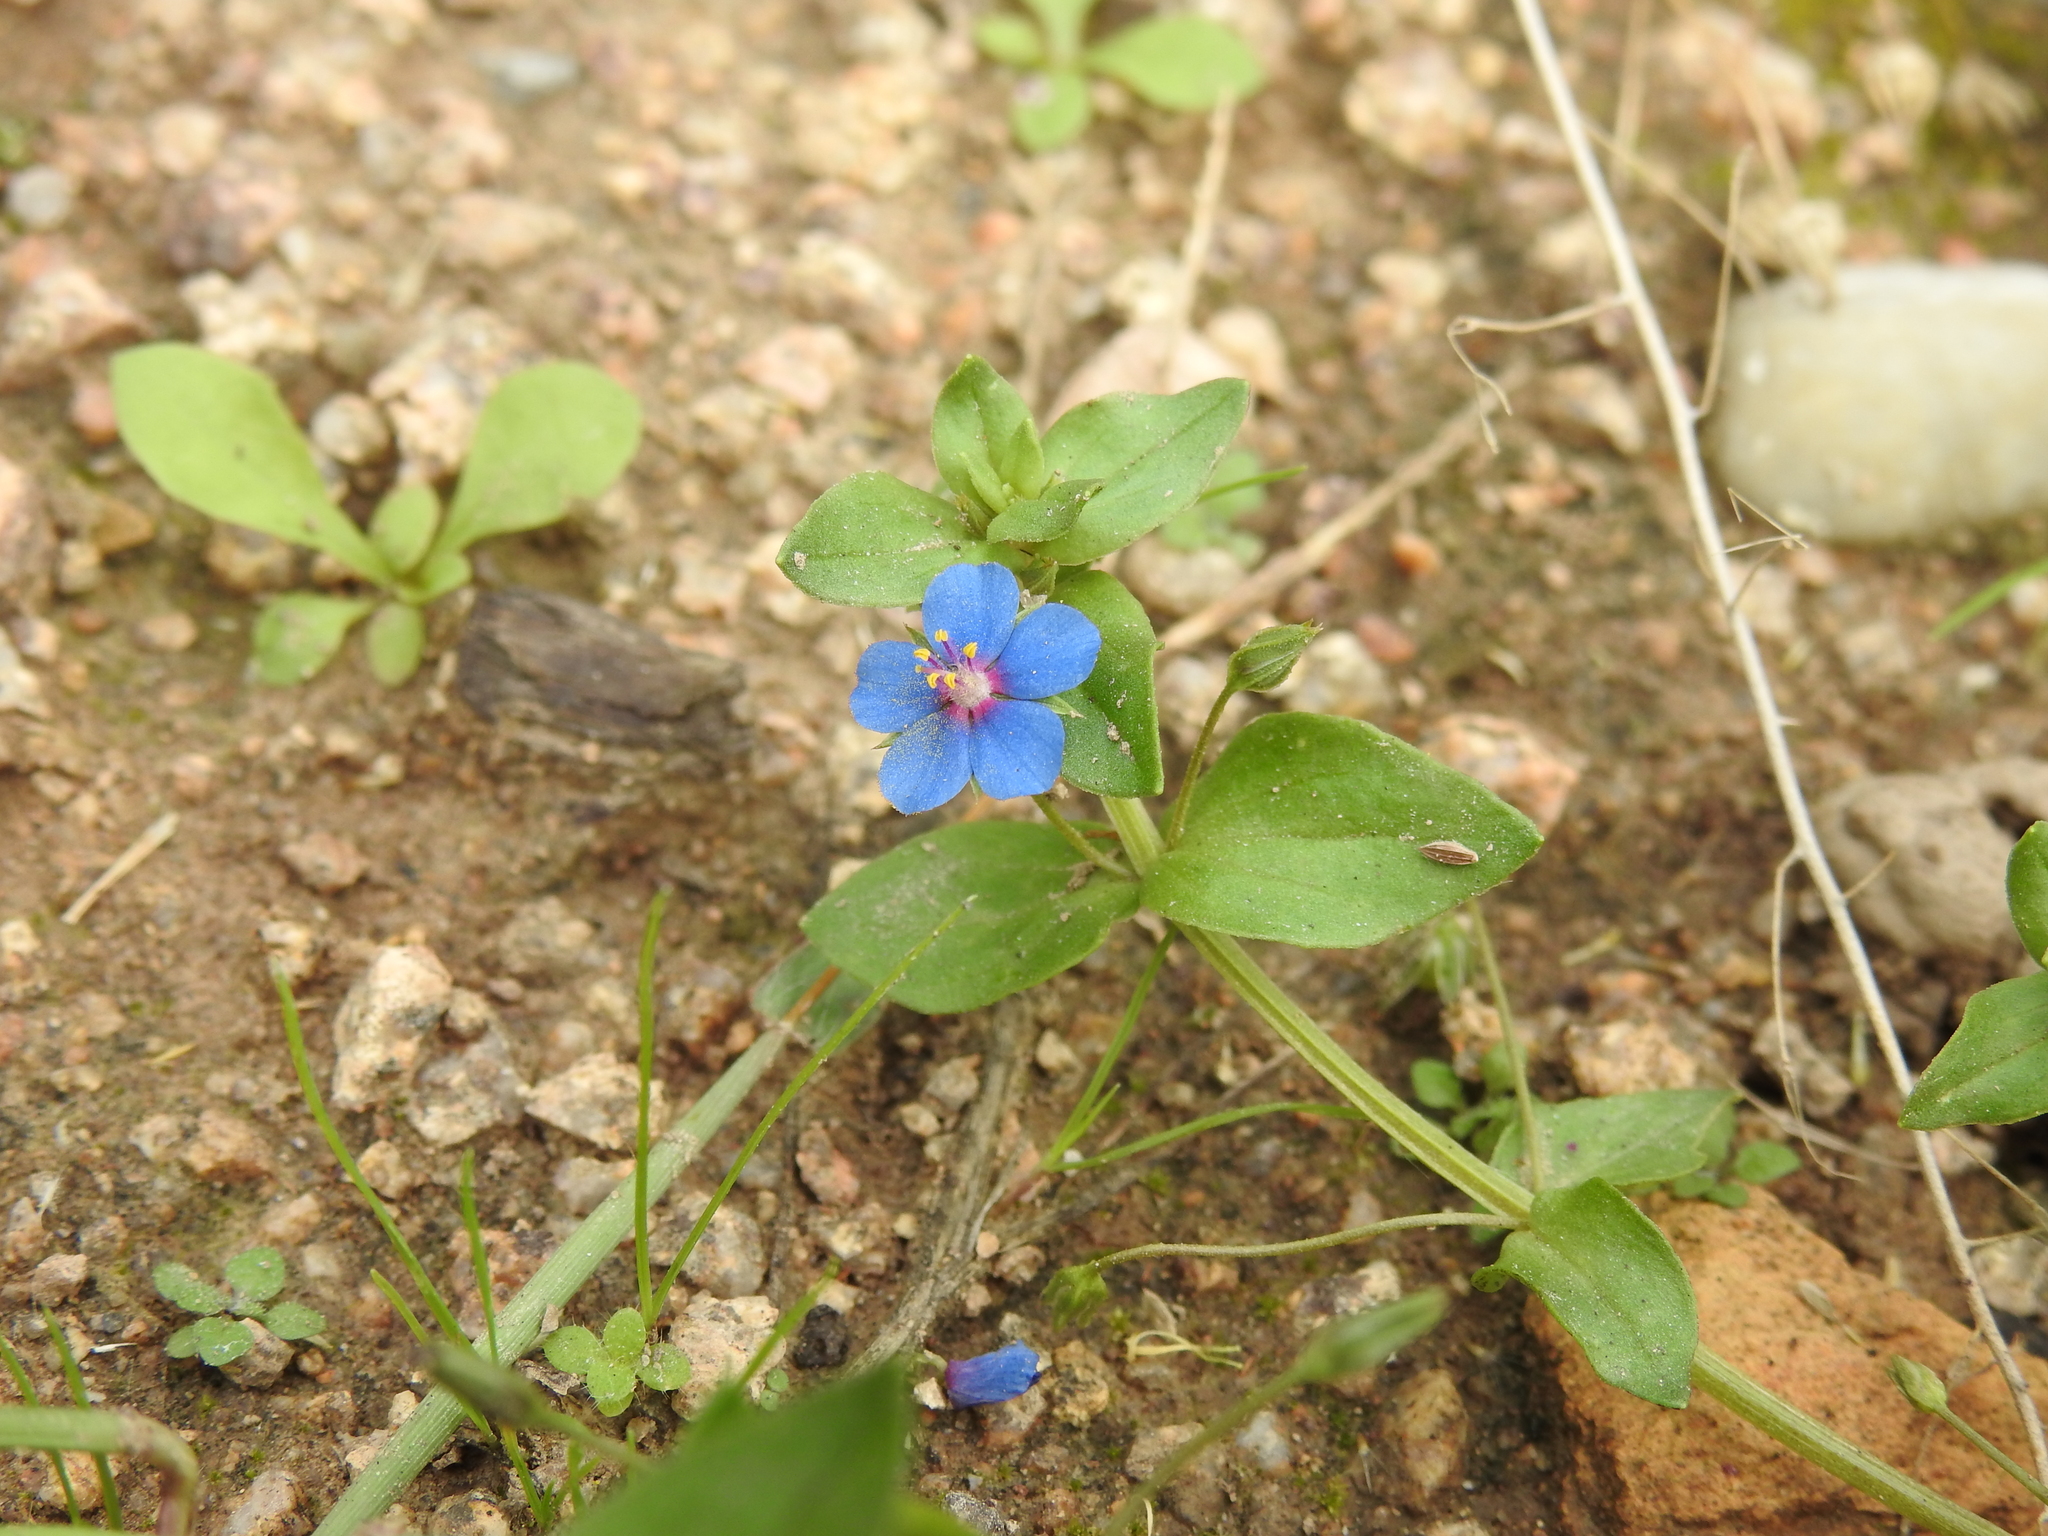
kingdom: Plantae
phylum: Tracheophyta
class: Magnoliopsida
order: Ericales
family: Primulaceae
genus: Lysimachia
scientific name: Lysimachia foemina
